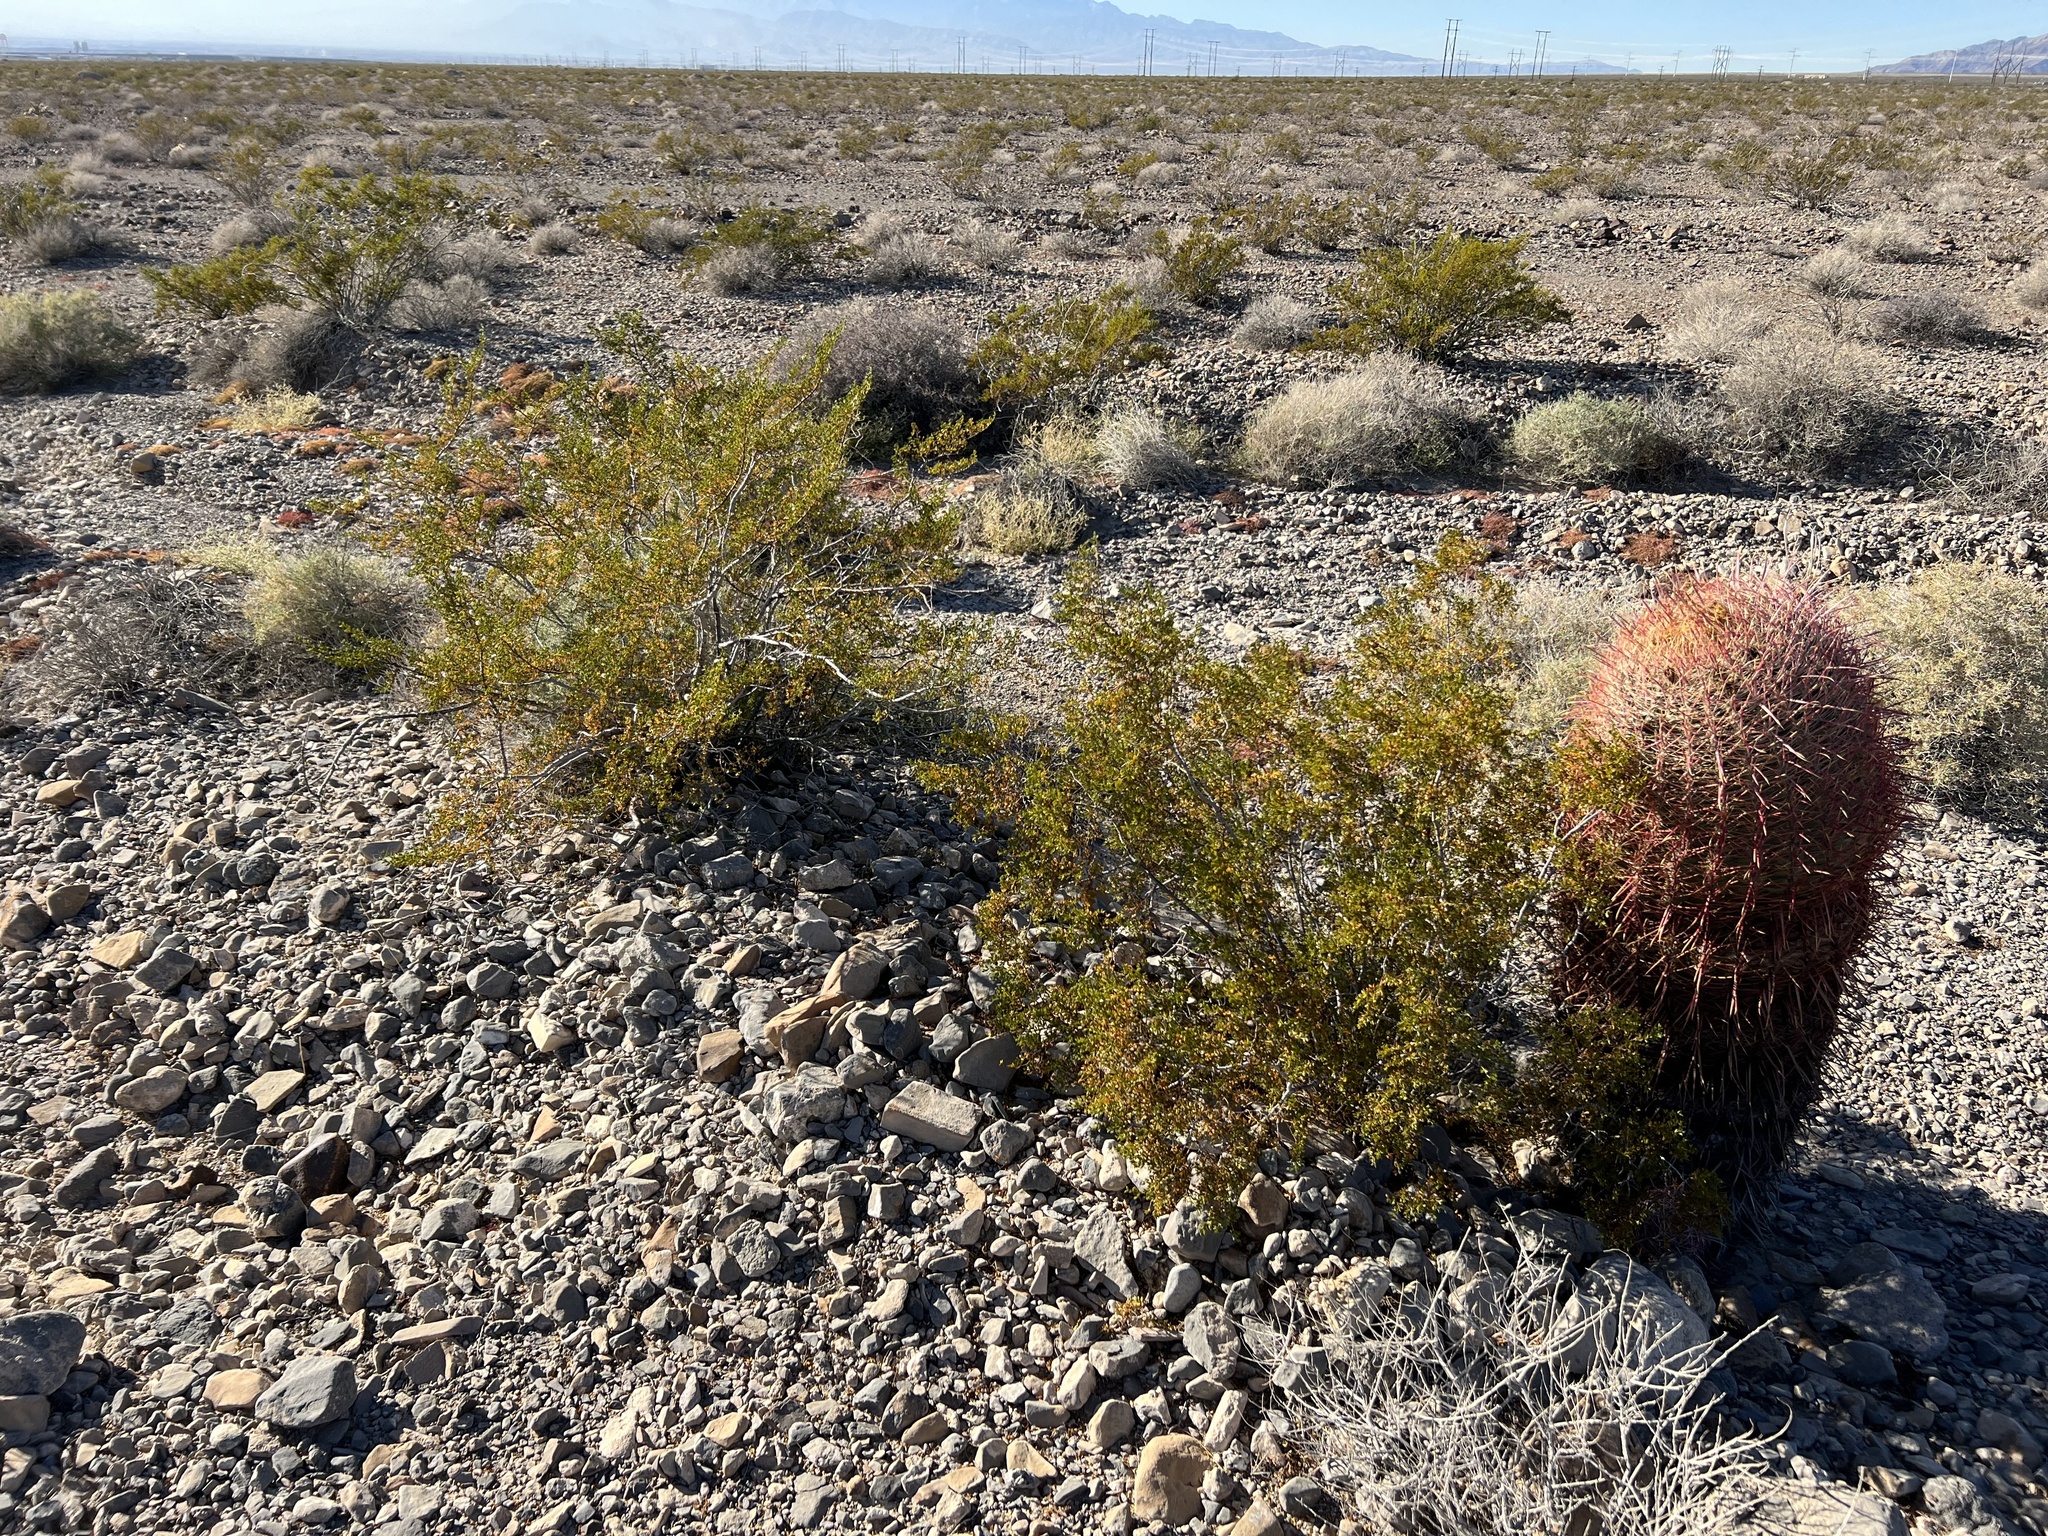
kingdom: Plantae
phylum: Tracheophyta
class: Magnoliopsida
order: Zygophyllales
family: Zygophyllaceae
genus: Larrea
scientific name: Larrea tridentata
